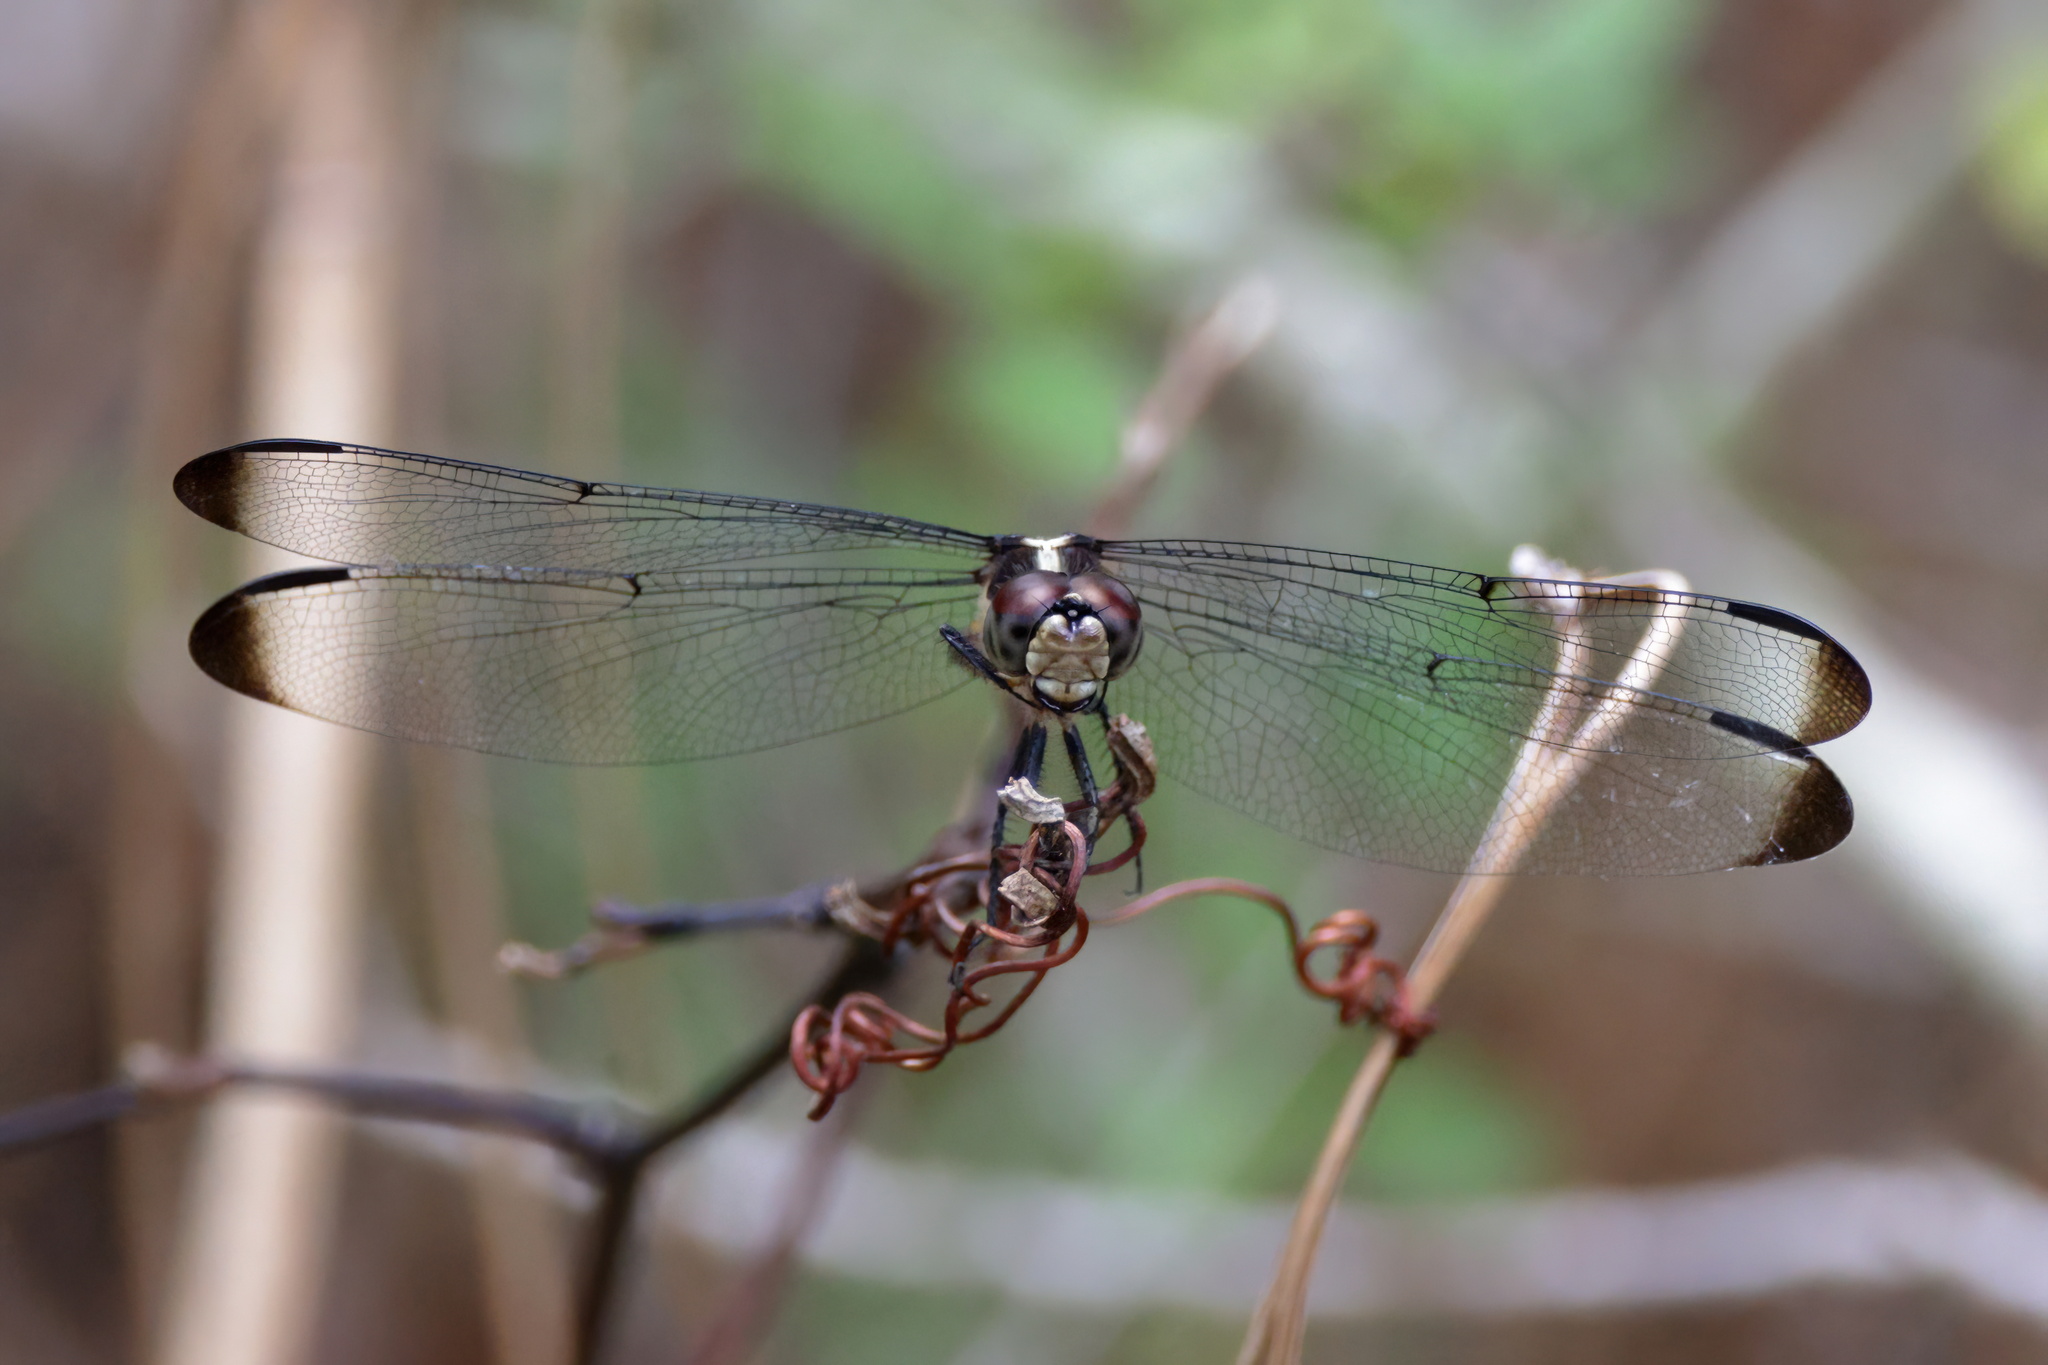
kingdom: Animalia
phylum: Arthropoda
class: Insecta
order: Odonata
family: Libellulidae
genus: Libellula
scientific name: Libellula incesta
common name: Slaty skimmer
